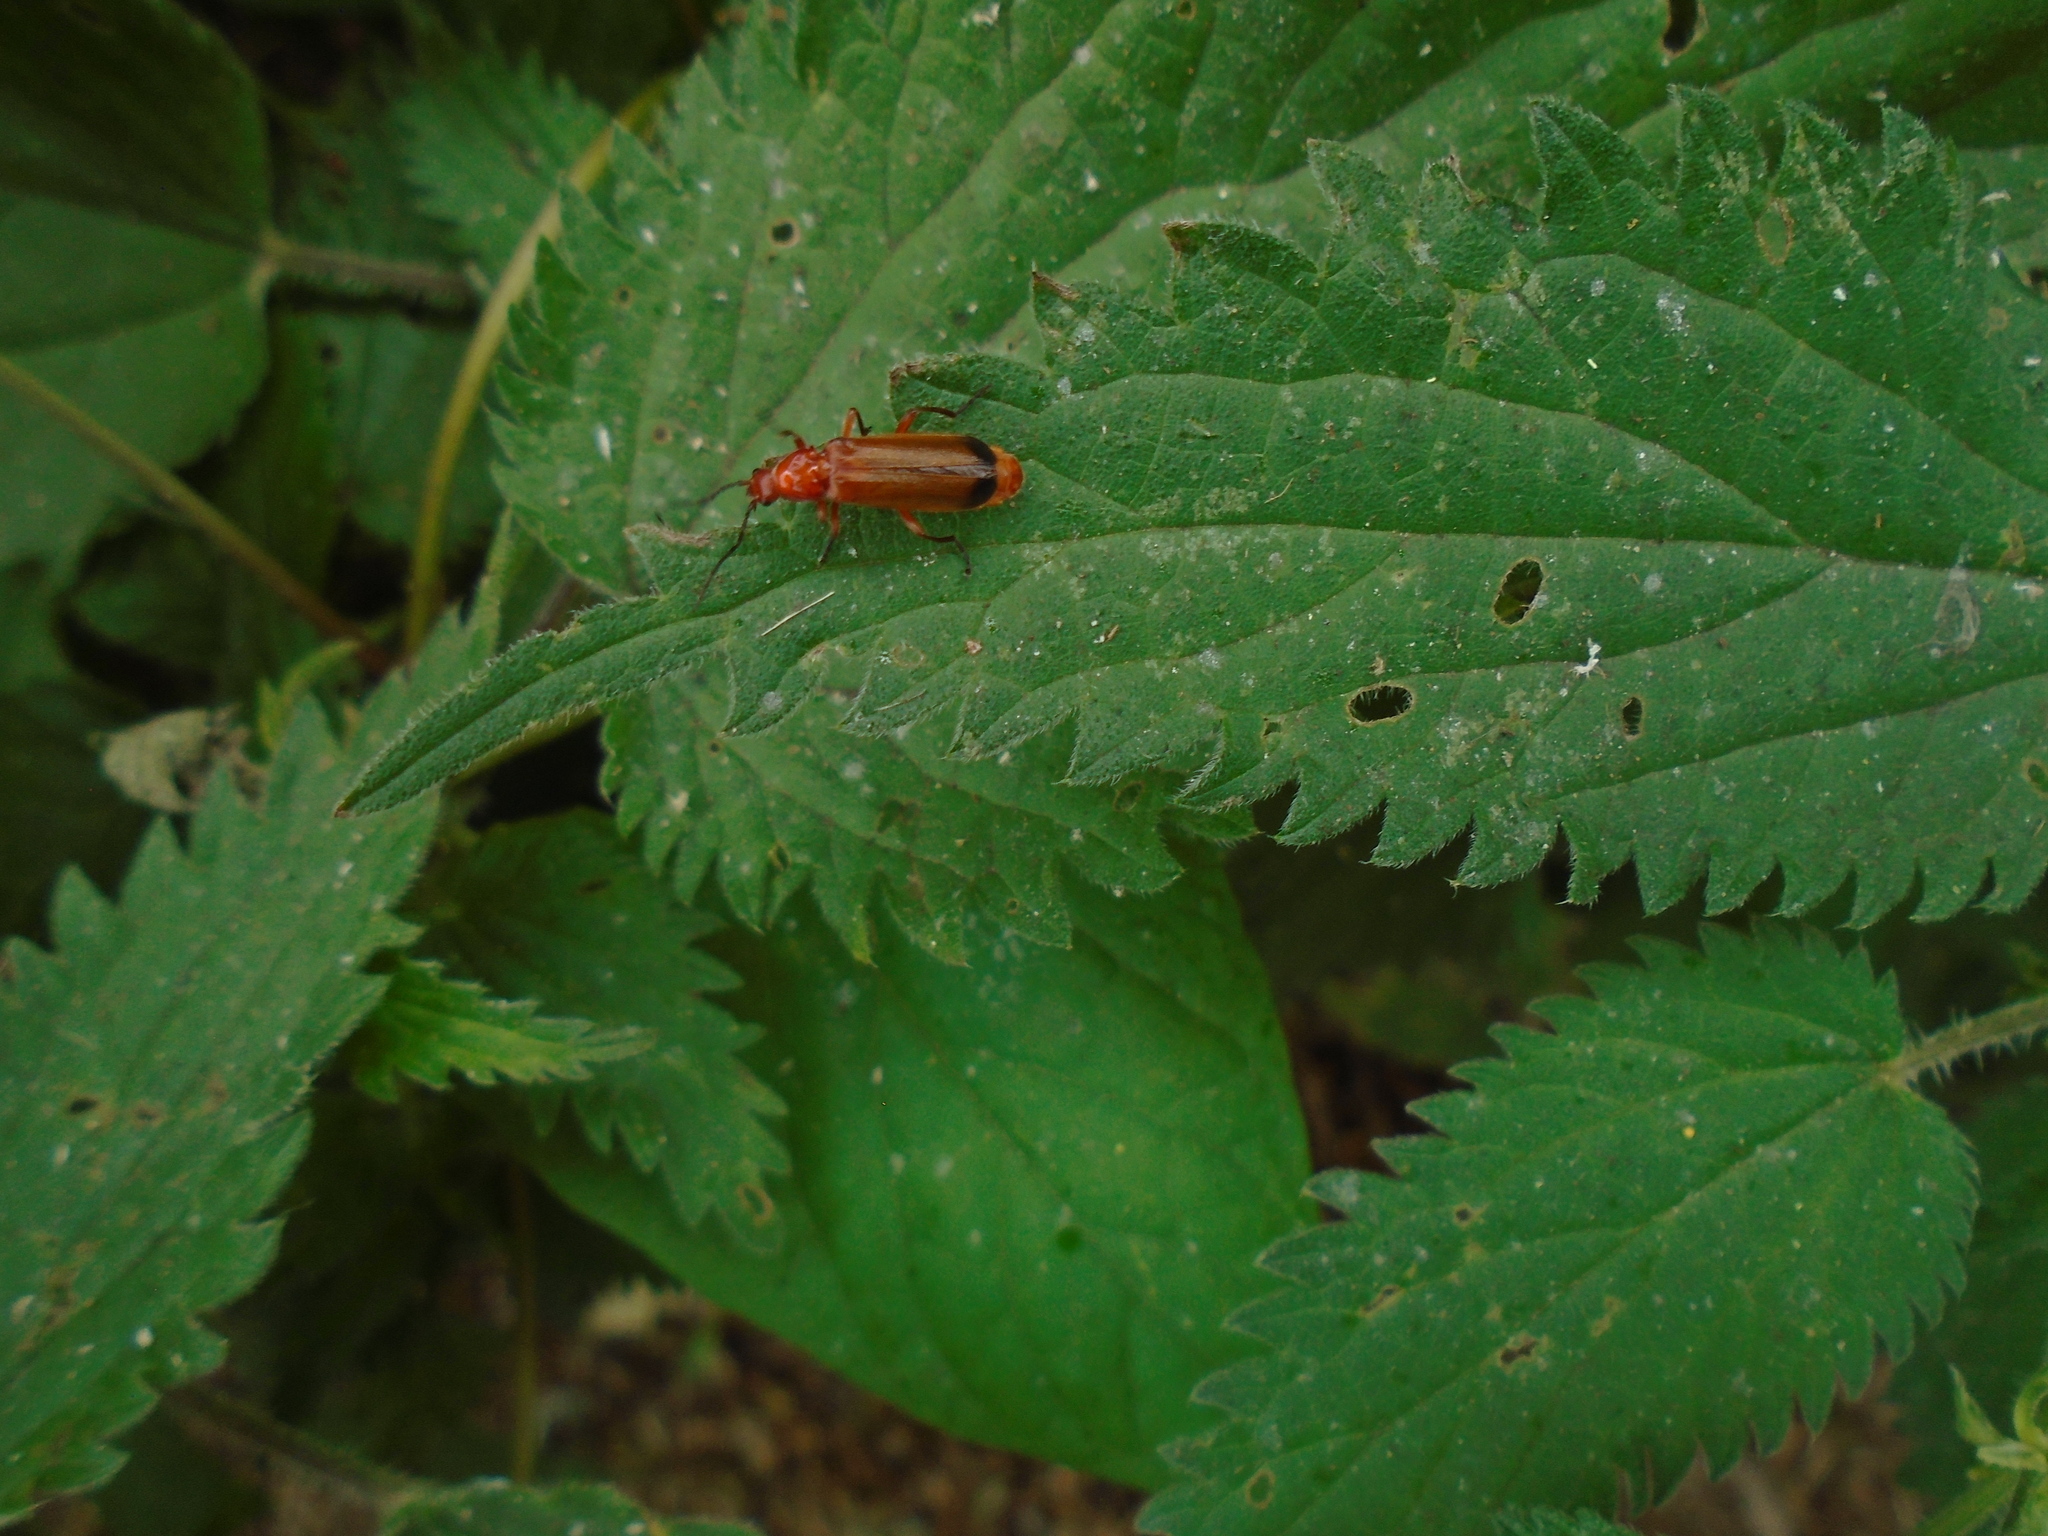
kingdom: Animalia
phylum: Arthropoda
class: Insecta
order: Coleoptera
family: Cantharidae
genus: Rhagonycha
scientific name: Rhagonycha fulva
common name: Common red soldier beetle
